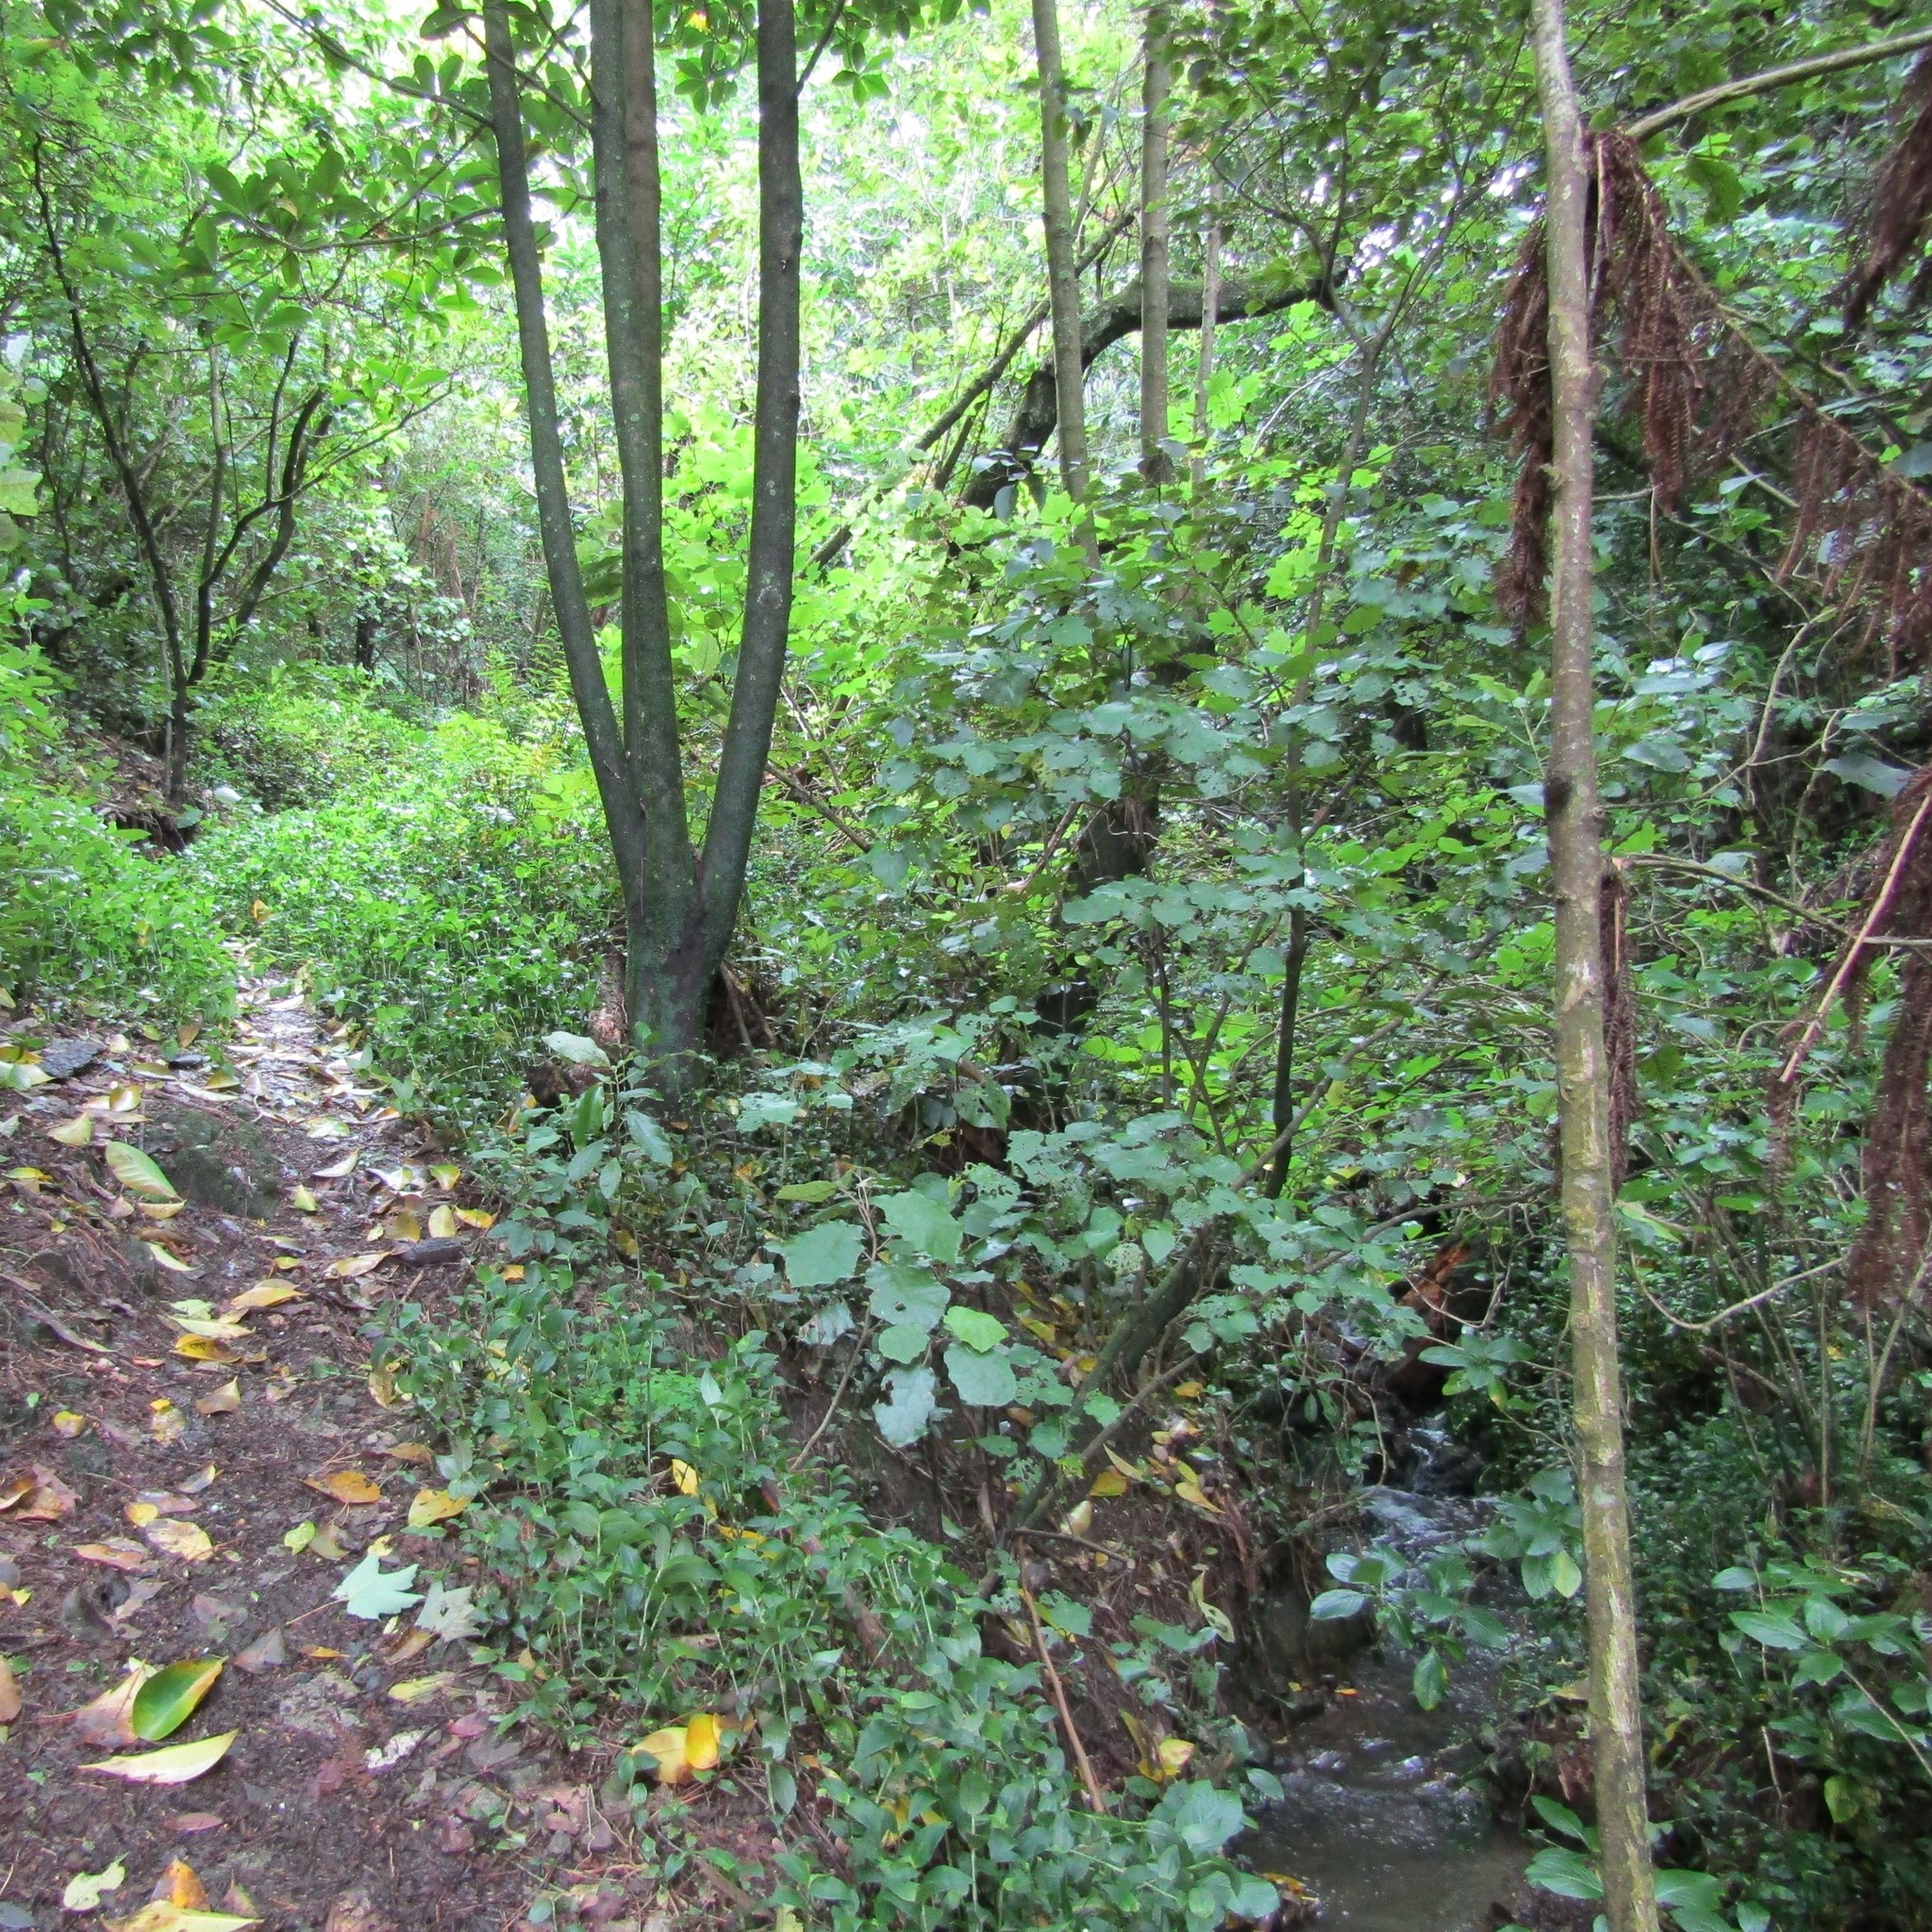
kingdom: Plantae
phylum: Tracheophyta
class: Liliopsida
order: Commelinales
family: Commelinaceae
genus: Tradescantia
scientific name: Tradescantia fluminensis
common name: Wandering-jew
